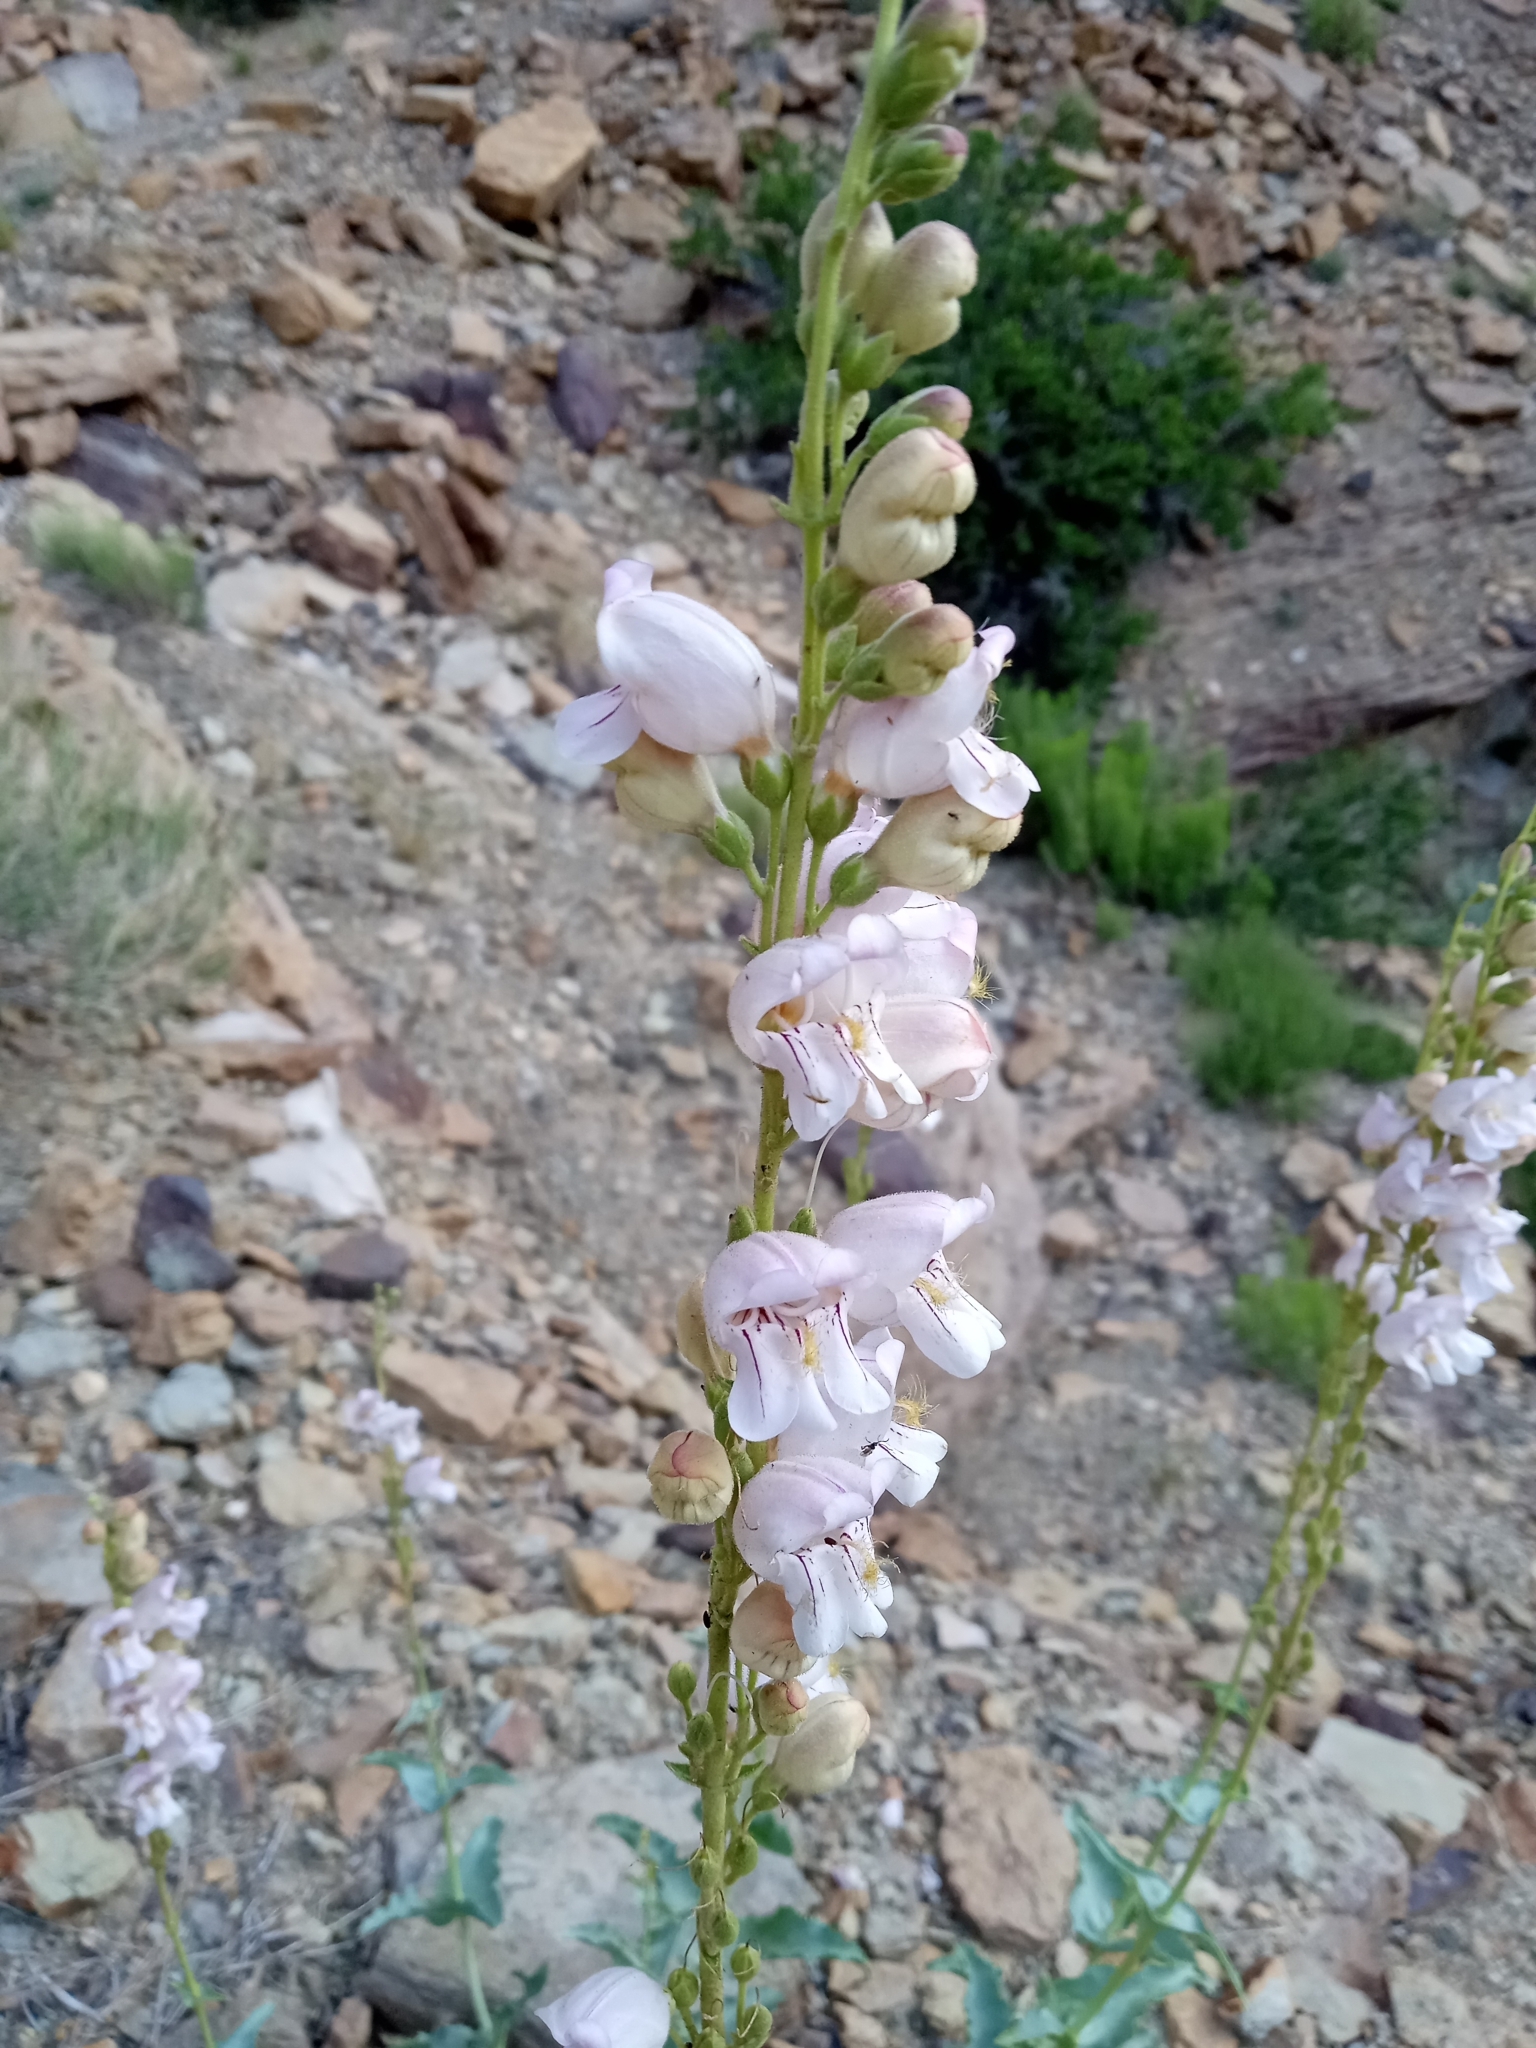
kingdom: Plantae
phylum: Tracheophyta
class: Magnoliopsida
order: Lamiales
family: Plantaginaceae
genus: Penstemon
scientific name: Penstemon palmeri
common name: Palmer penstemon
